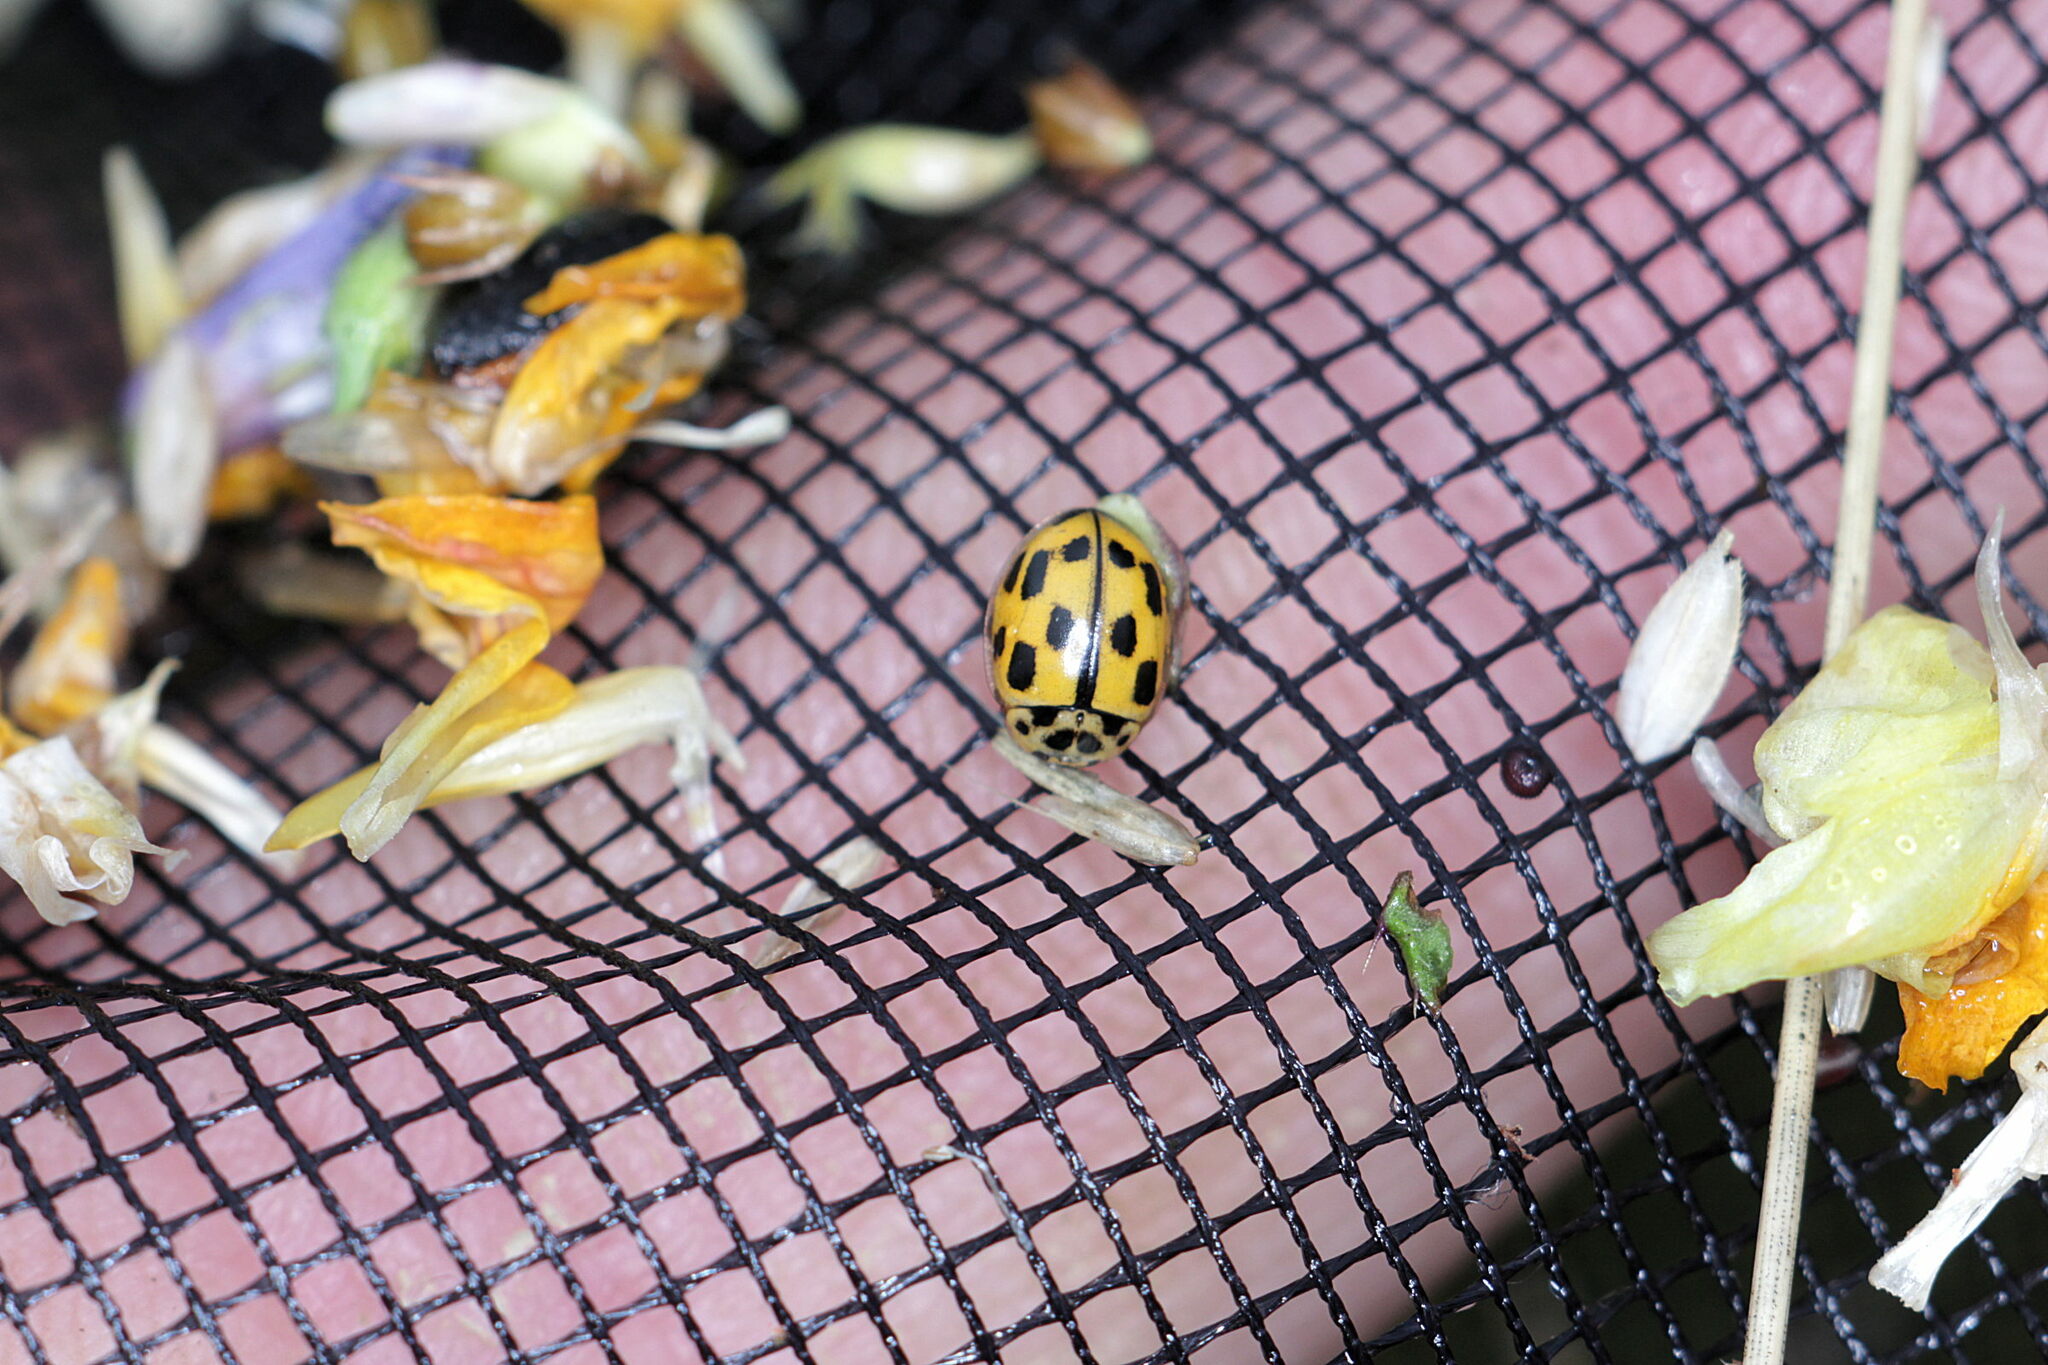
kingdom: Animalia
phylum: Arthropoda
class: Insecta
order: Coleoptera
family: Coccinellidae
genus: Propylaea
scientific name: Propylaea quatuordecimpunctata
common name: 14-spotted ladybird beetle
